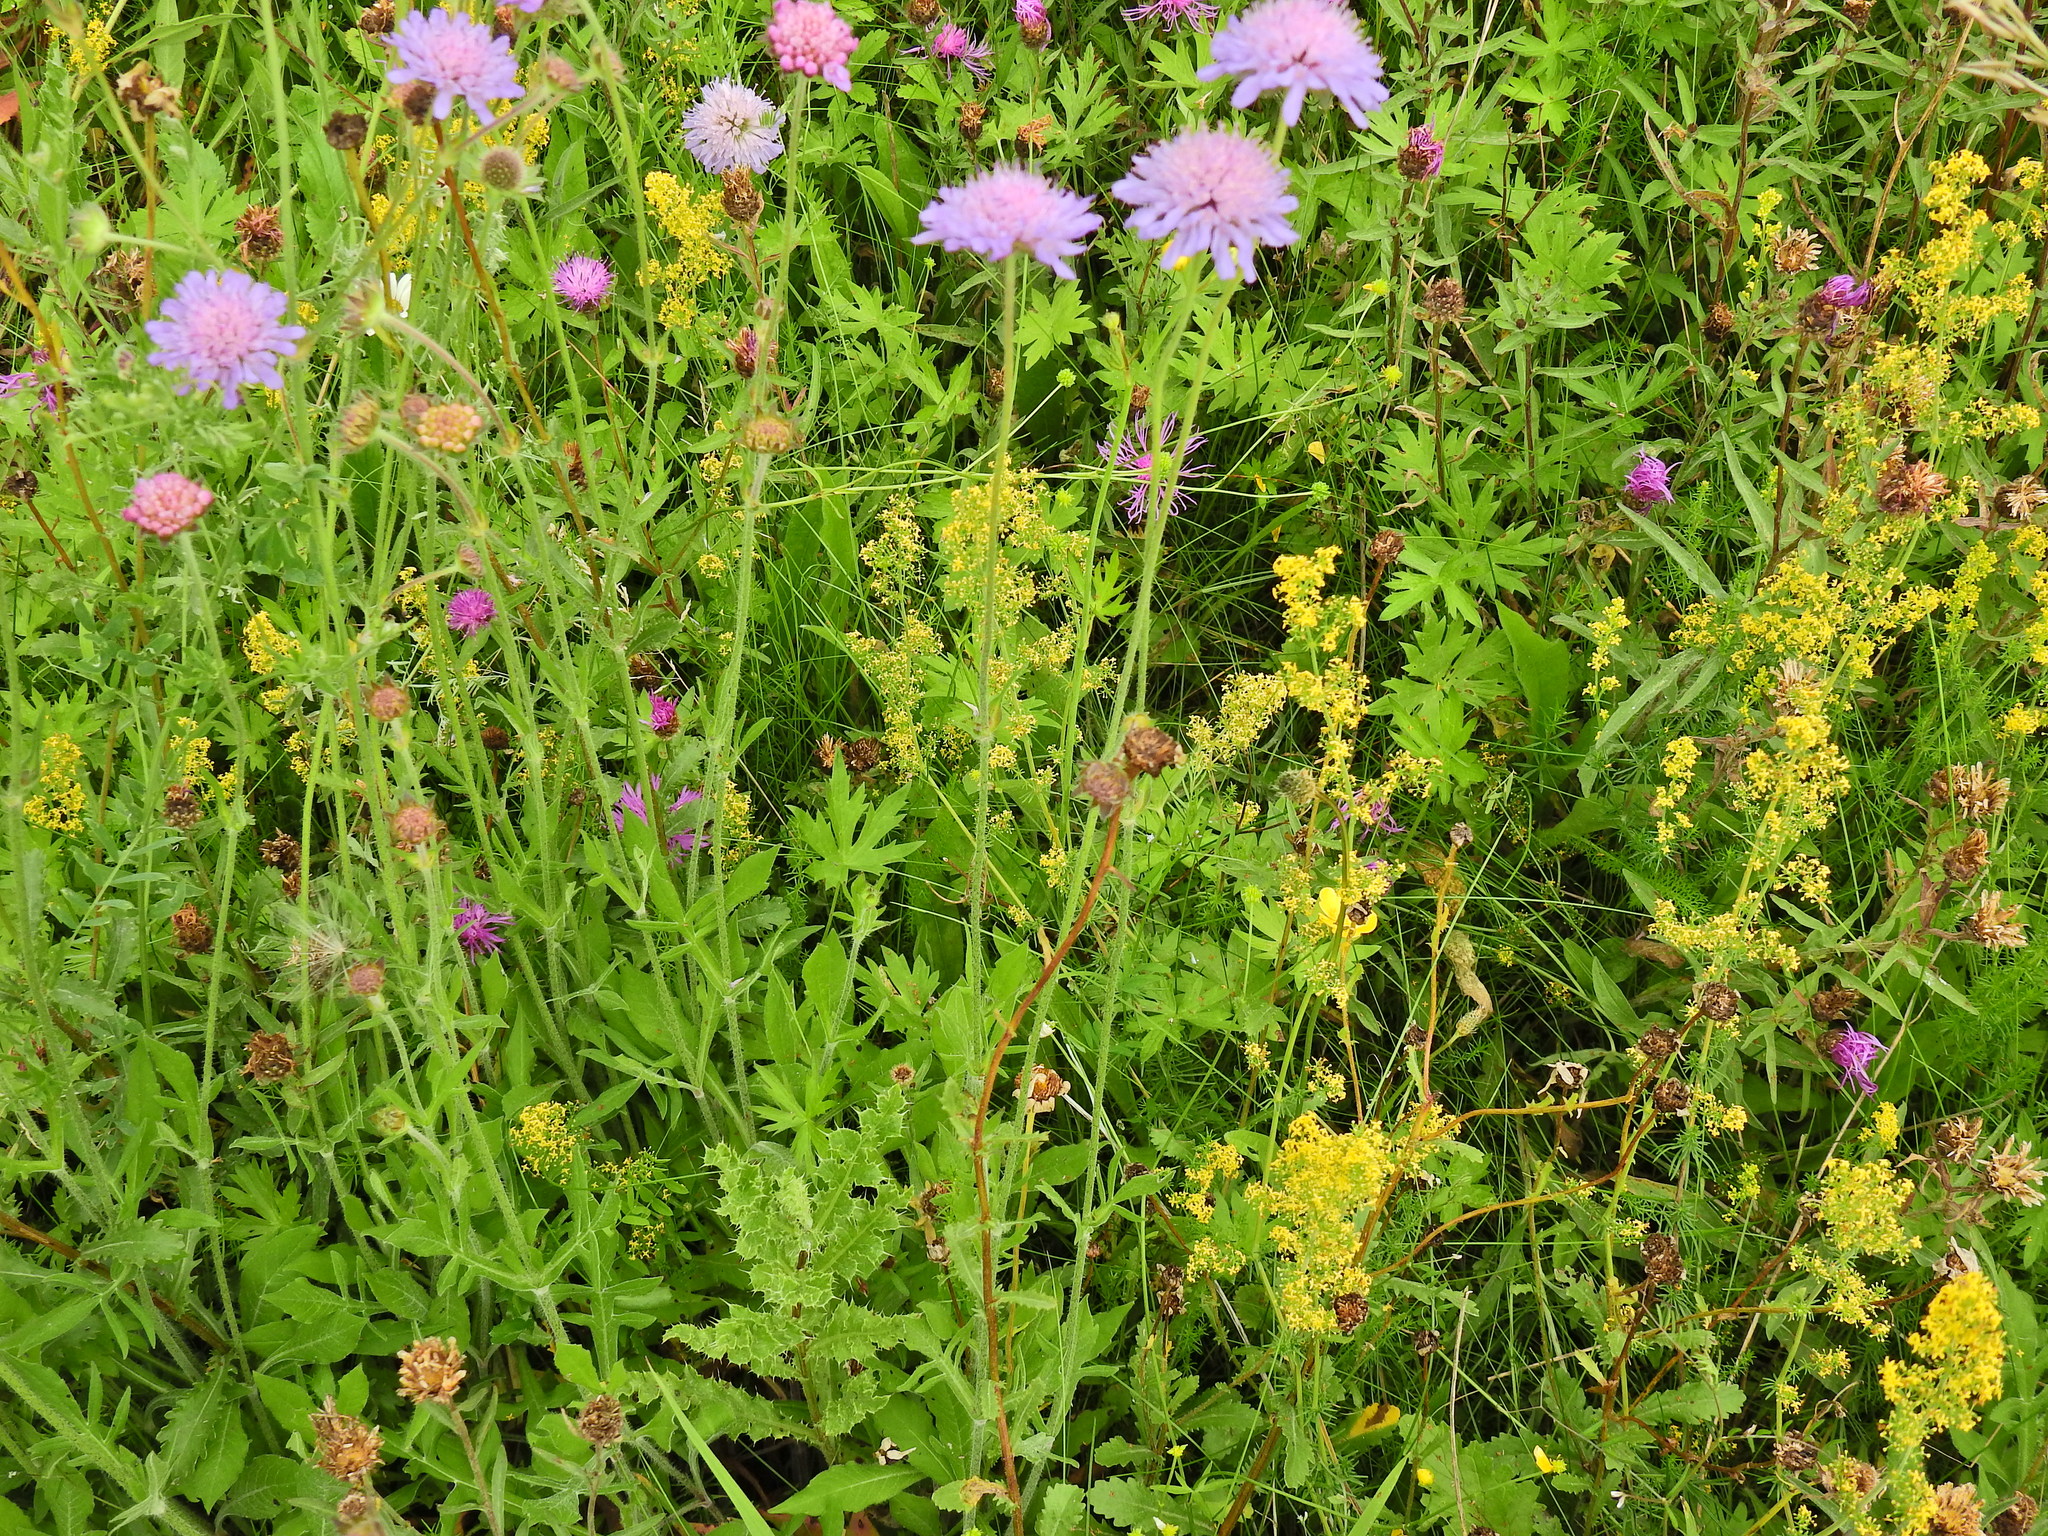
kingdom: Plantae
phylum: Tracheophyta
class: Magnoliopsida
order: Dipsacales
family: Caprifoliaceae
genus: Knautia
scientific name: Knautia arvensis
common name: Field scabiosa
